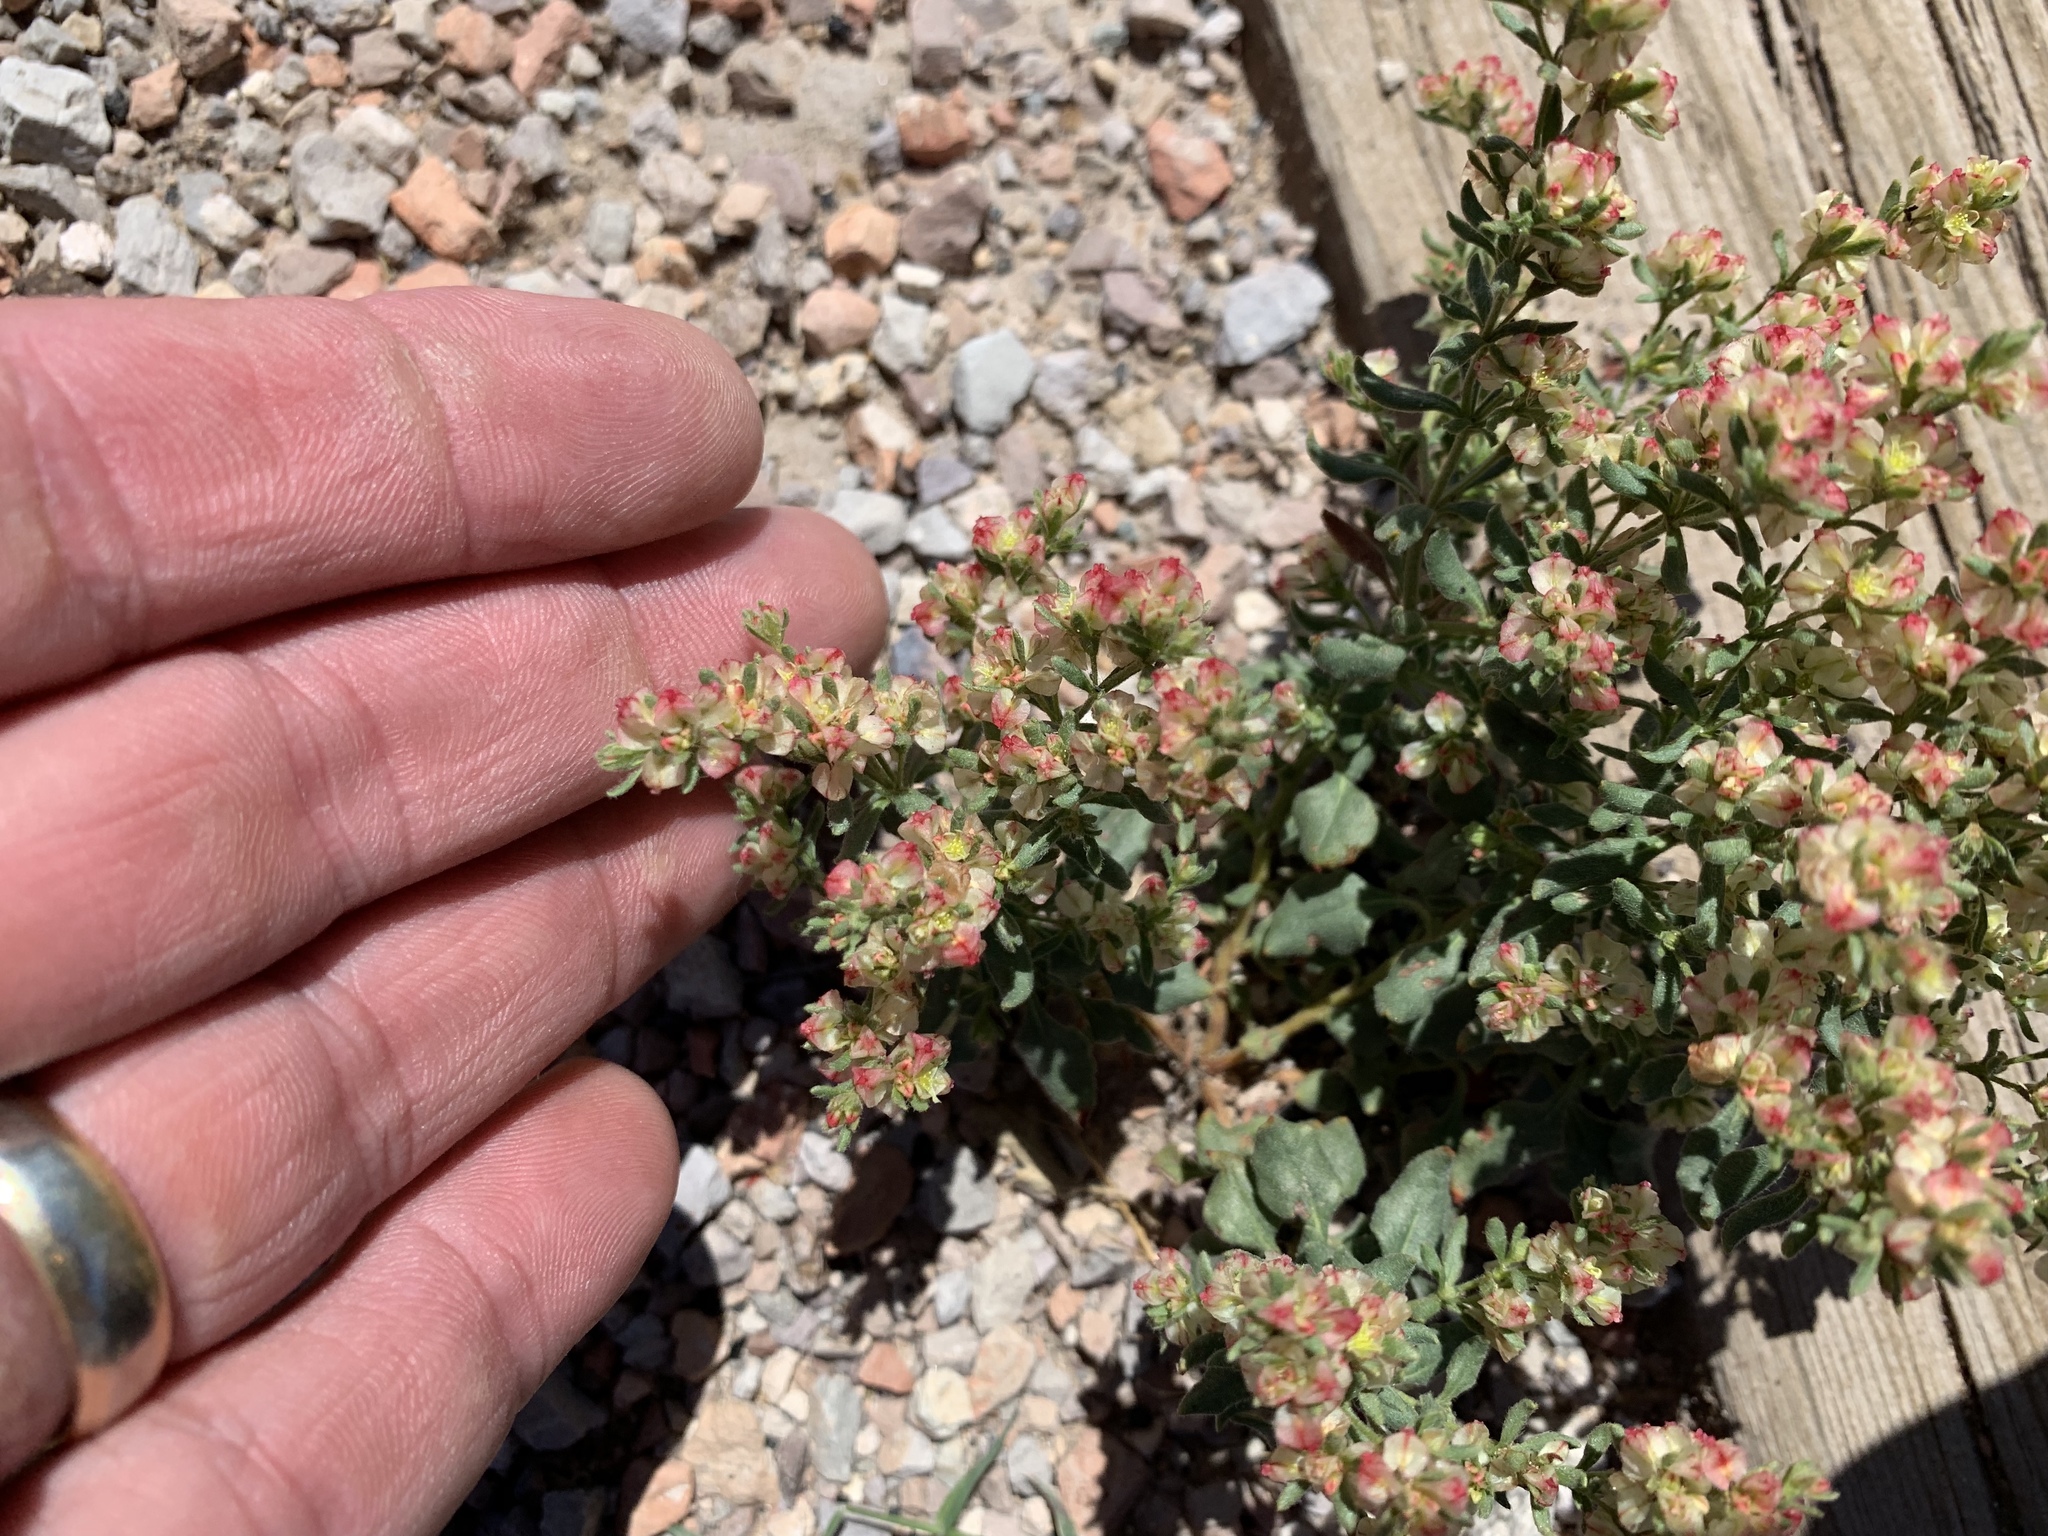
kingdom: Plantae
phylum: Tracheophyta
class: Magnoliopsida
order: Caryophyllales
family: Polygonaceae
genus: Eriogonum
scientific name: Eriogonum abertianum
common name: Abert's wild buckwheat
